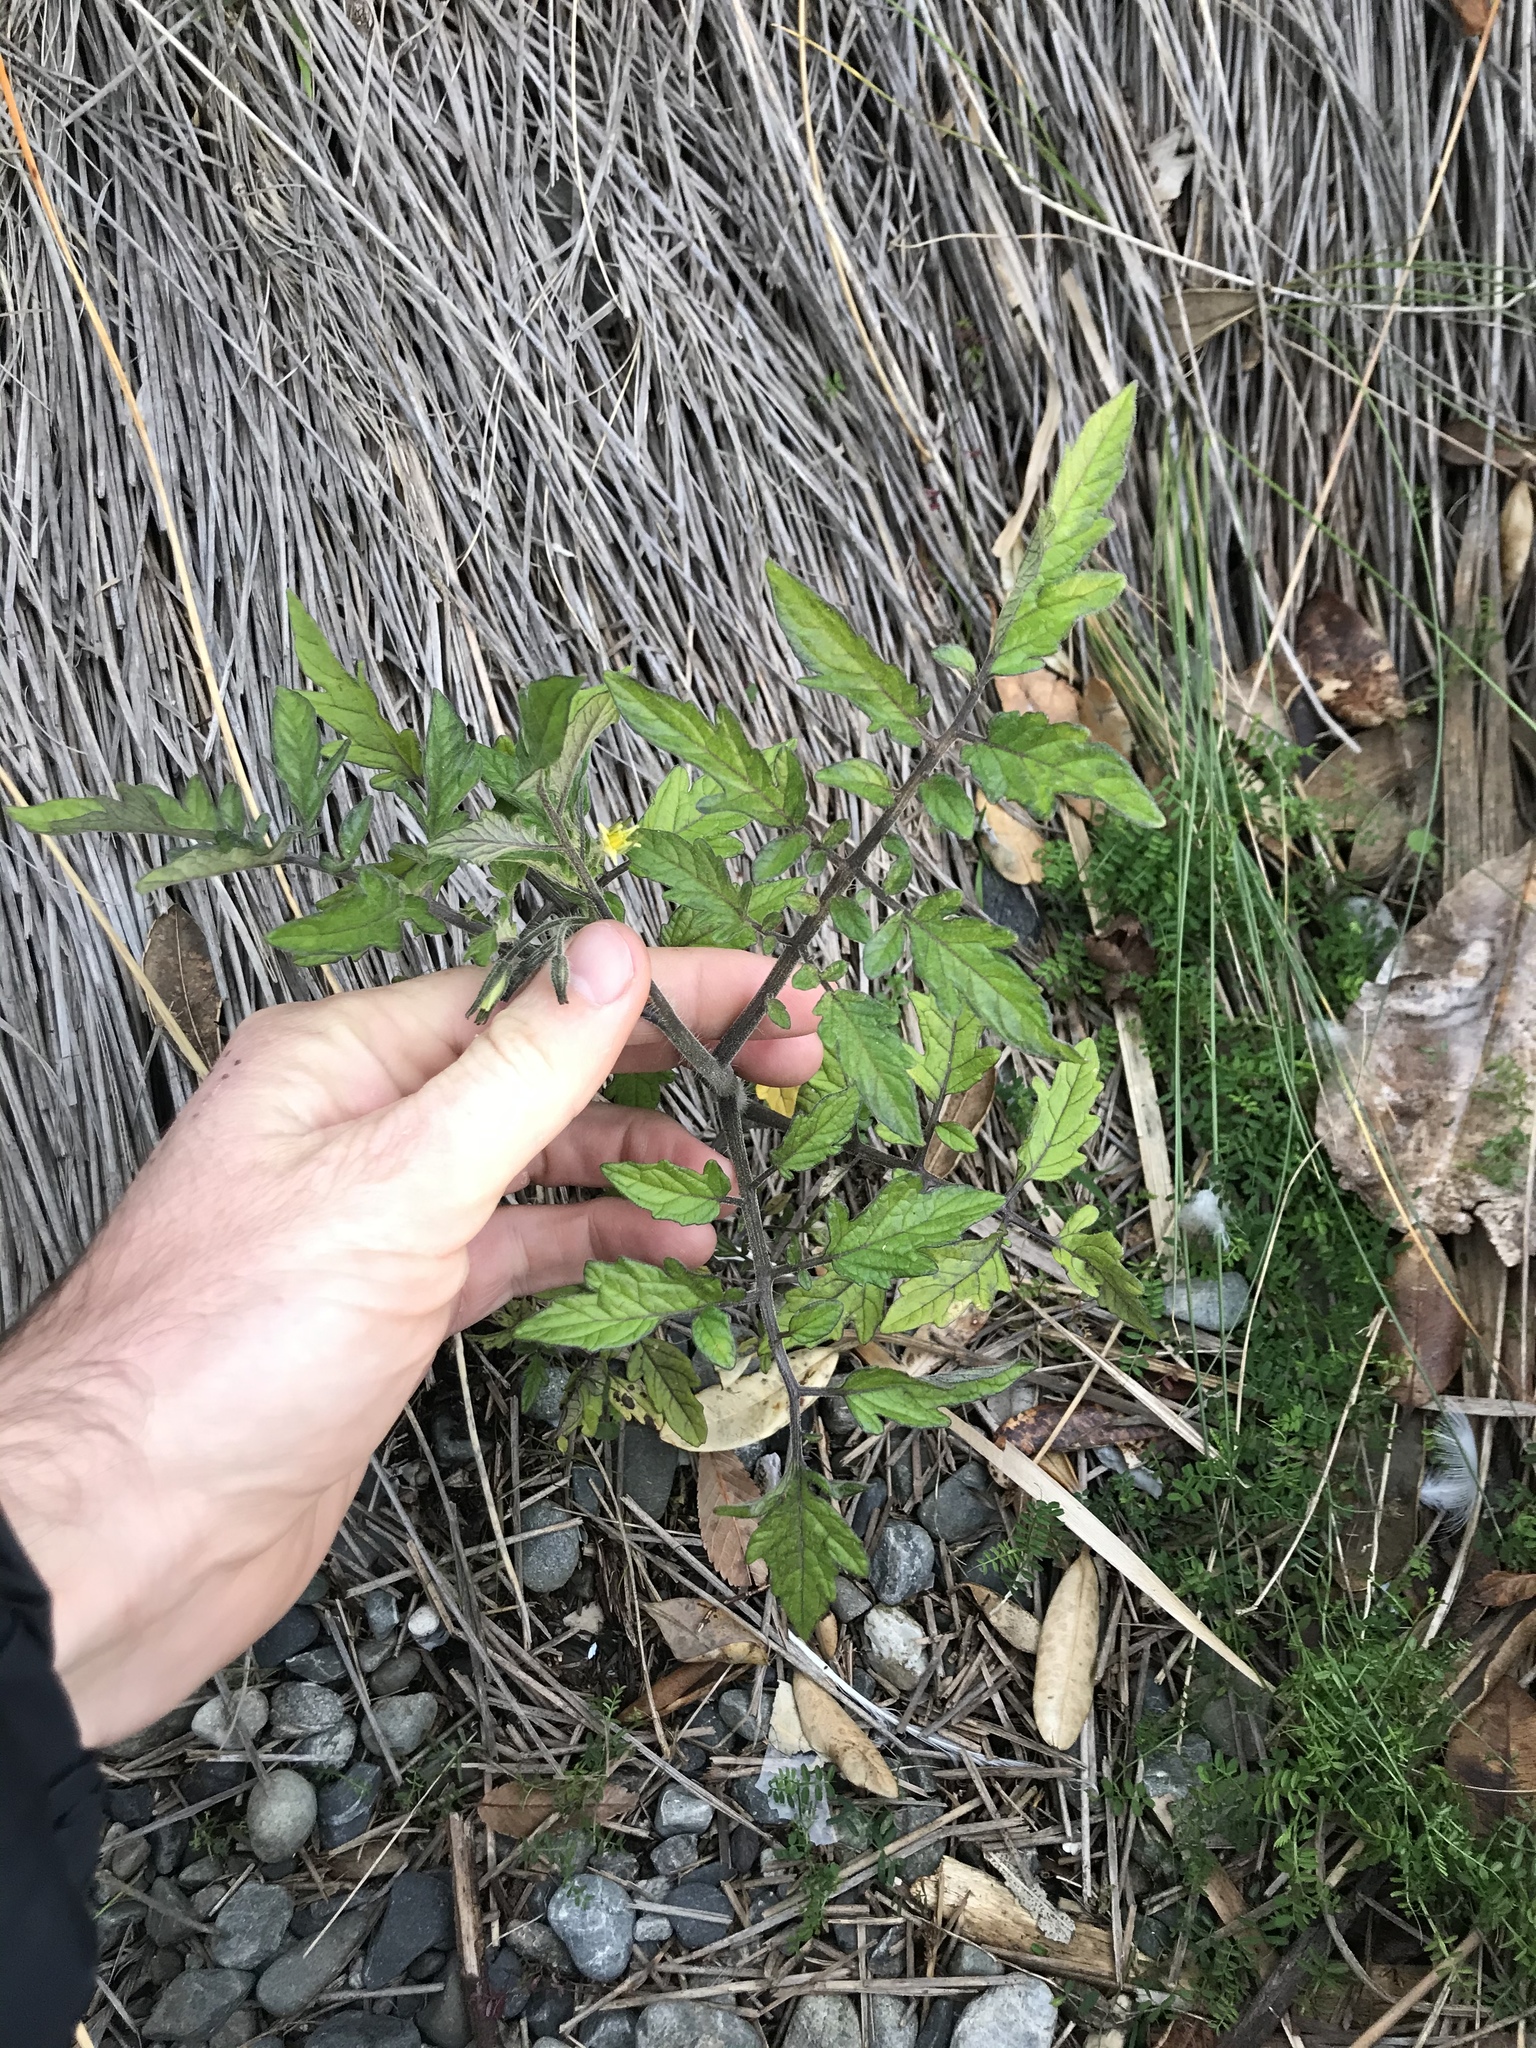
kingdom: Plantae
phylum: Tracheophyta
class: Magnoliopsida
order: Solanales
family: Solanaceae
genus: Solanum
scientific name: Solanum lycopersicum
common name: Garden tomato
